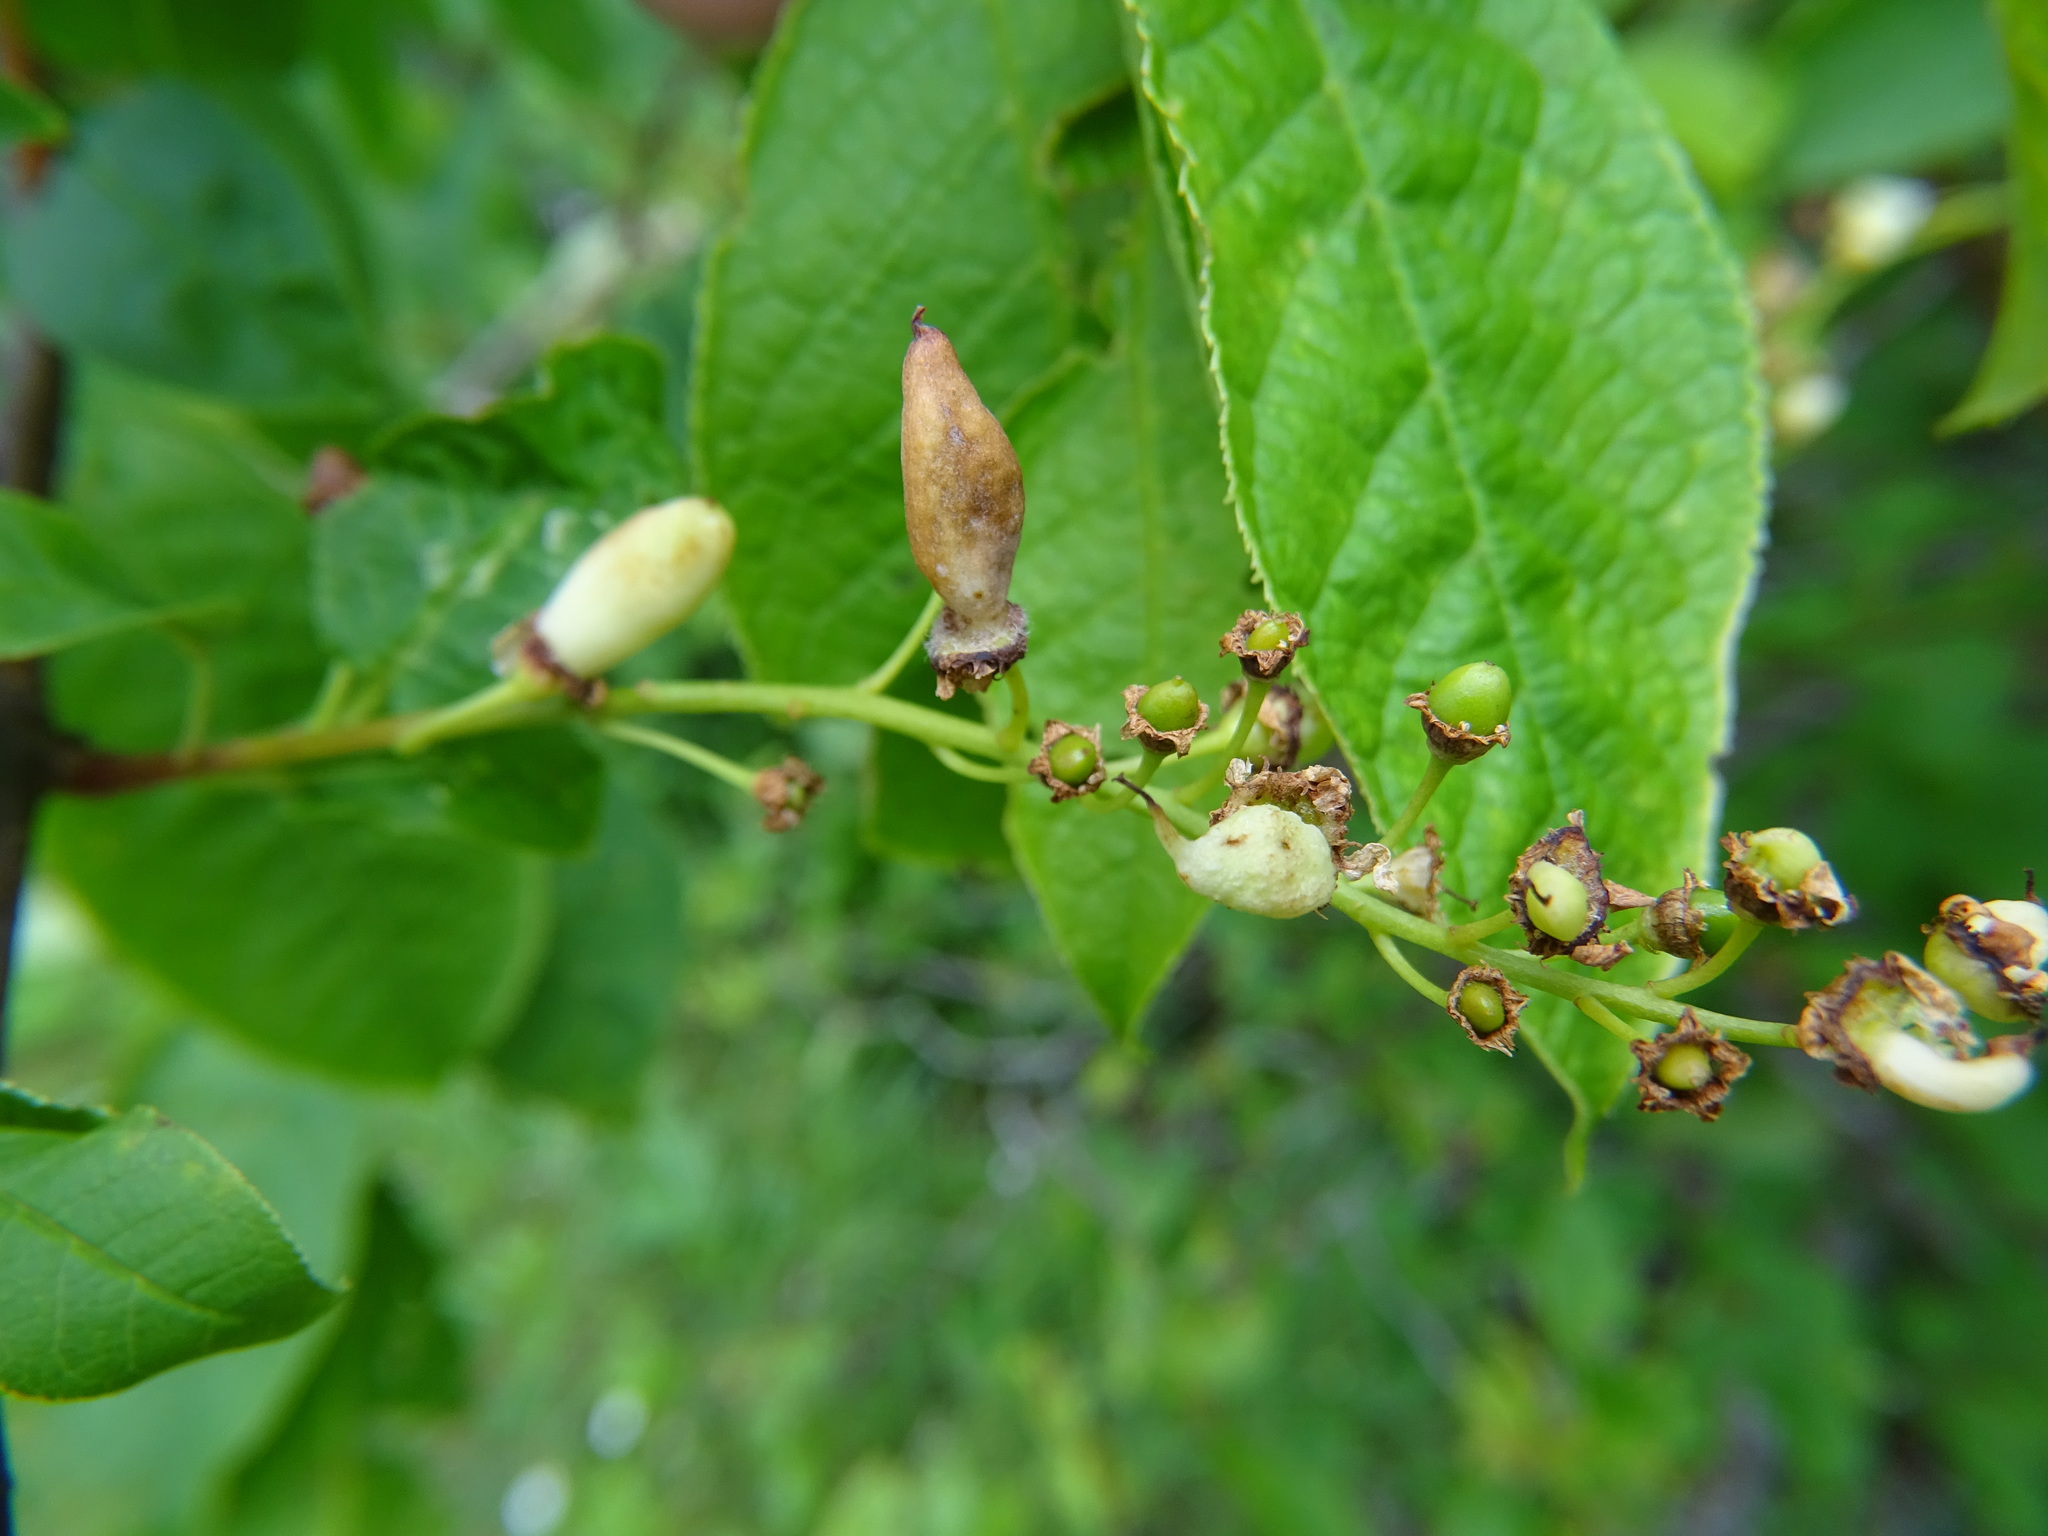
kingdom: Fungi
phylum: Ascomycota
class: Taphrinomycetes
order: Taphrinales
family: Taphrinaceae
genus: Taphrina
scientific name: Taphrina padi
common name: Bird cherry pocket
